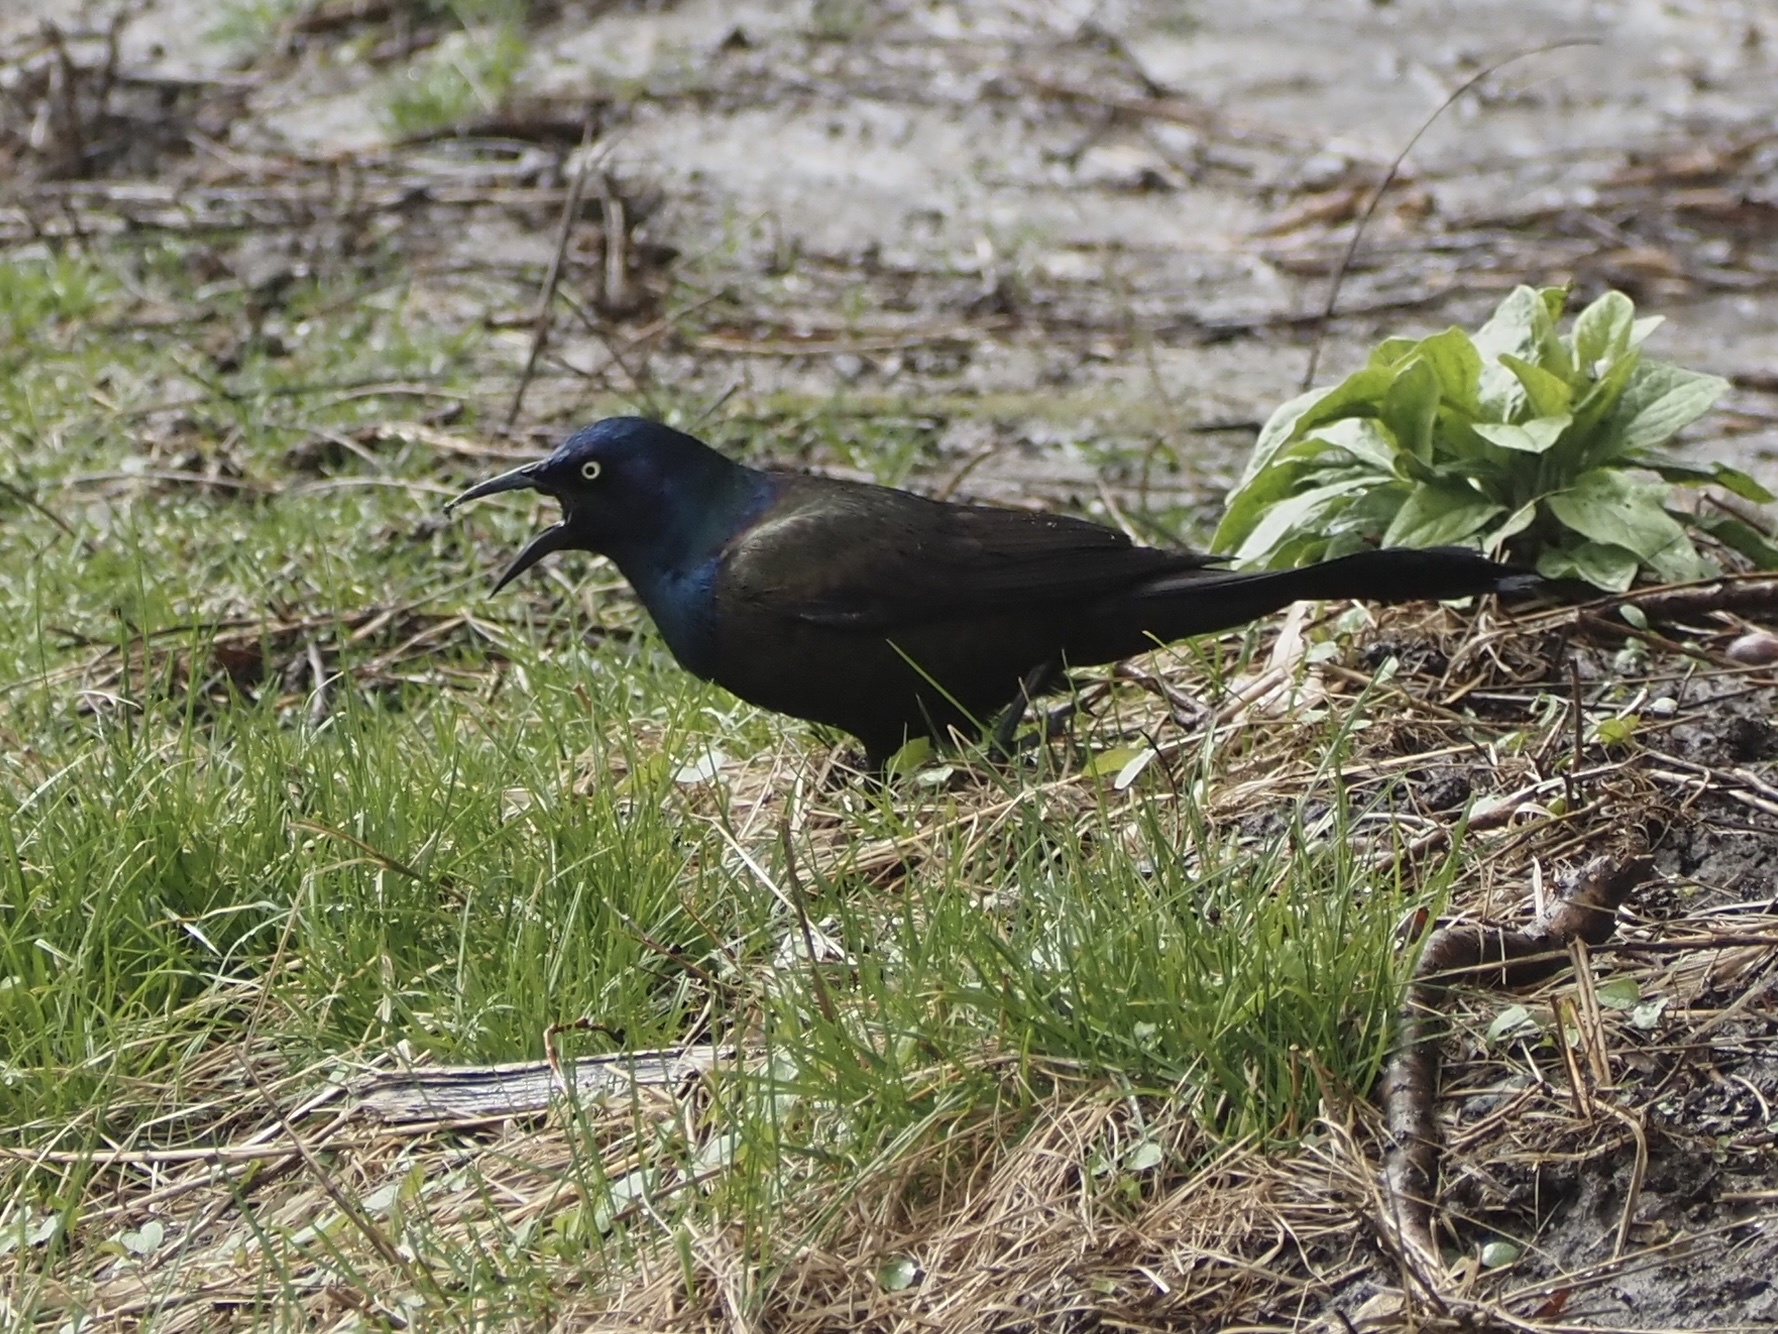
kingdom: Animalia
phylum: Chordata
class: Aves
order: Passeriformes
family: Icteridae
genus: Quiscalus
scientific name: Quiscalus quiscula
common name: Common grackle
